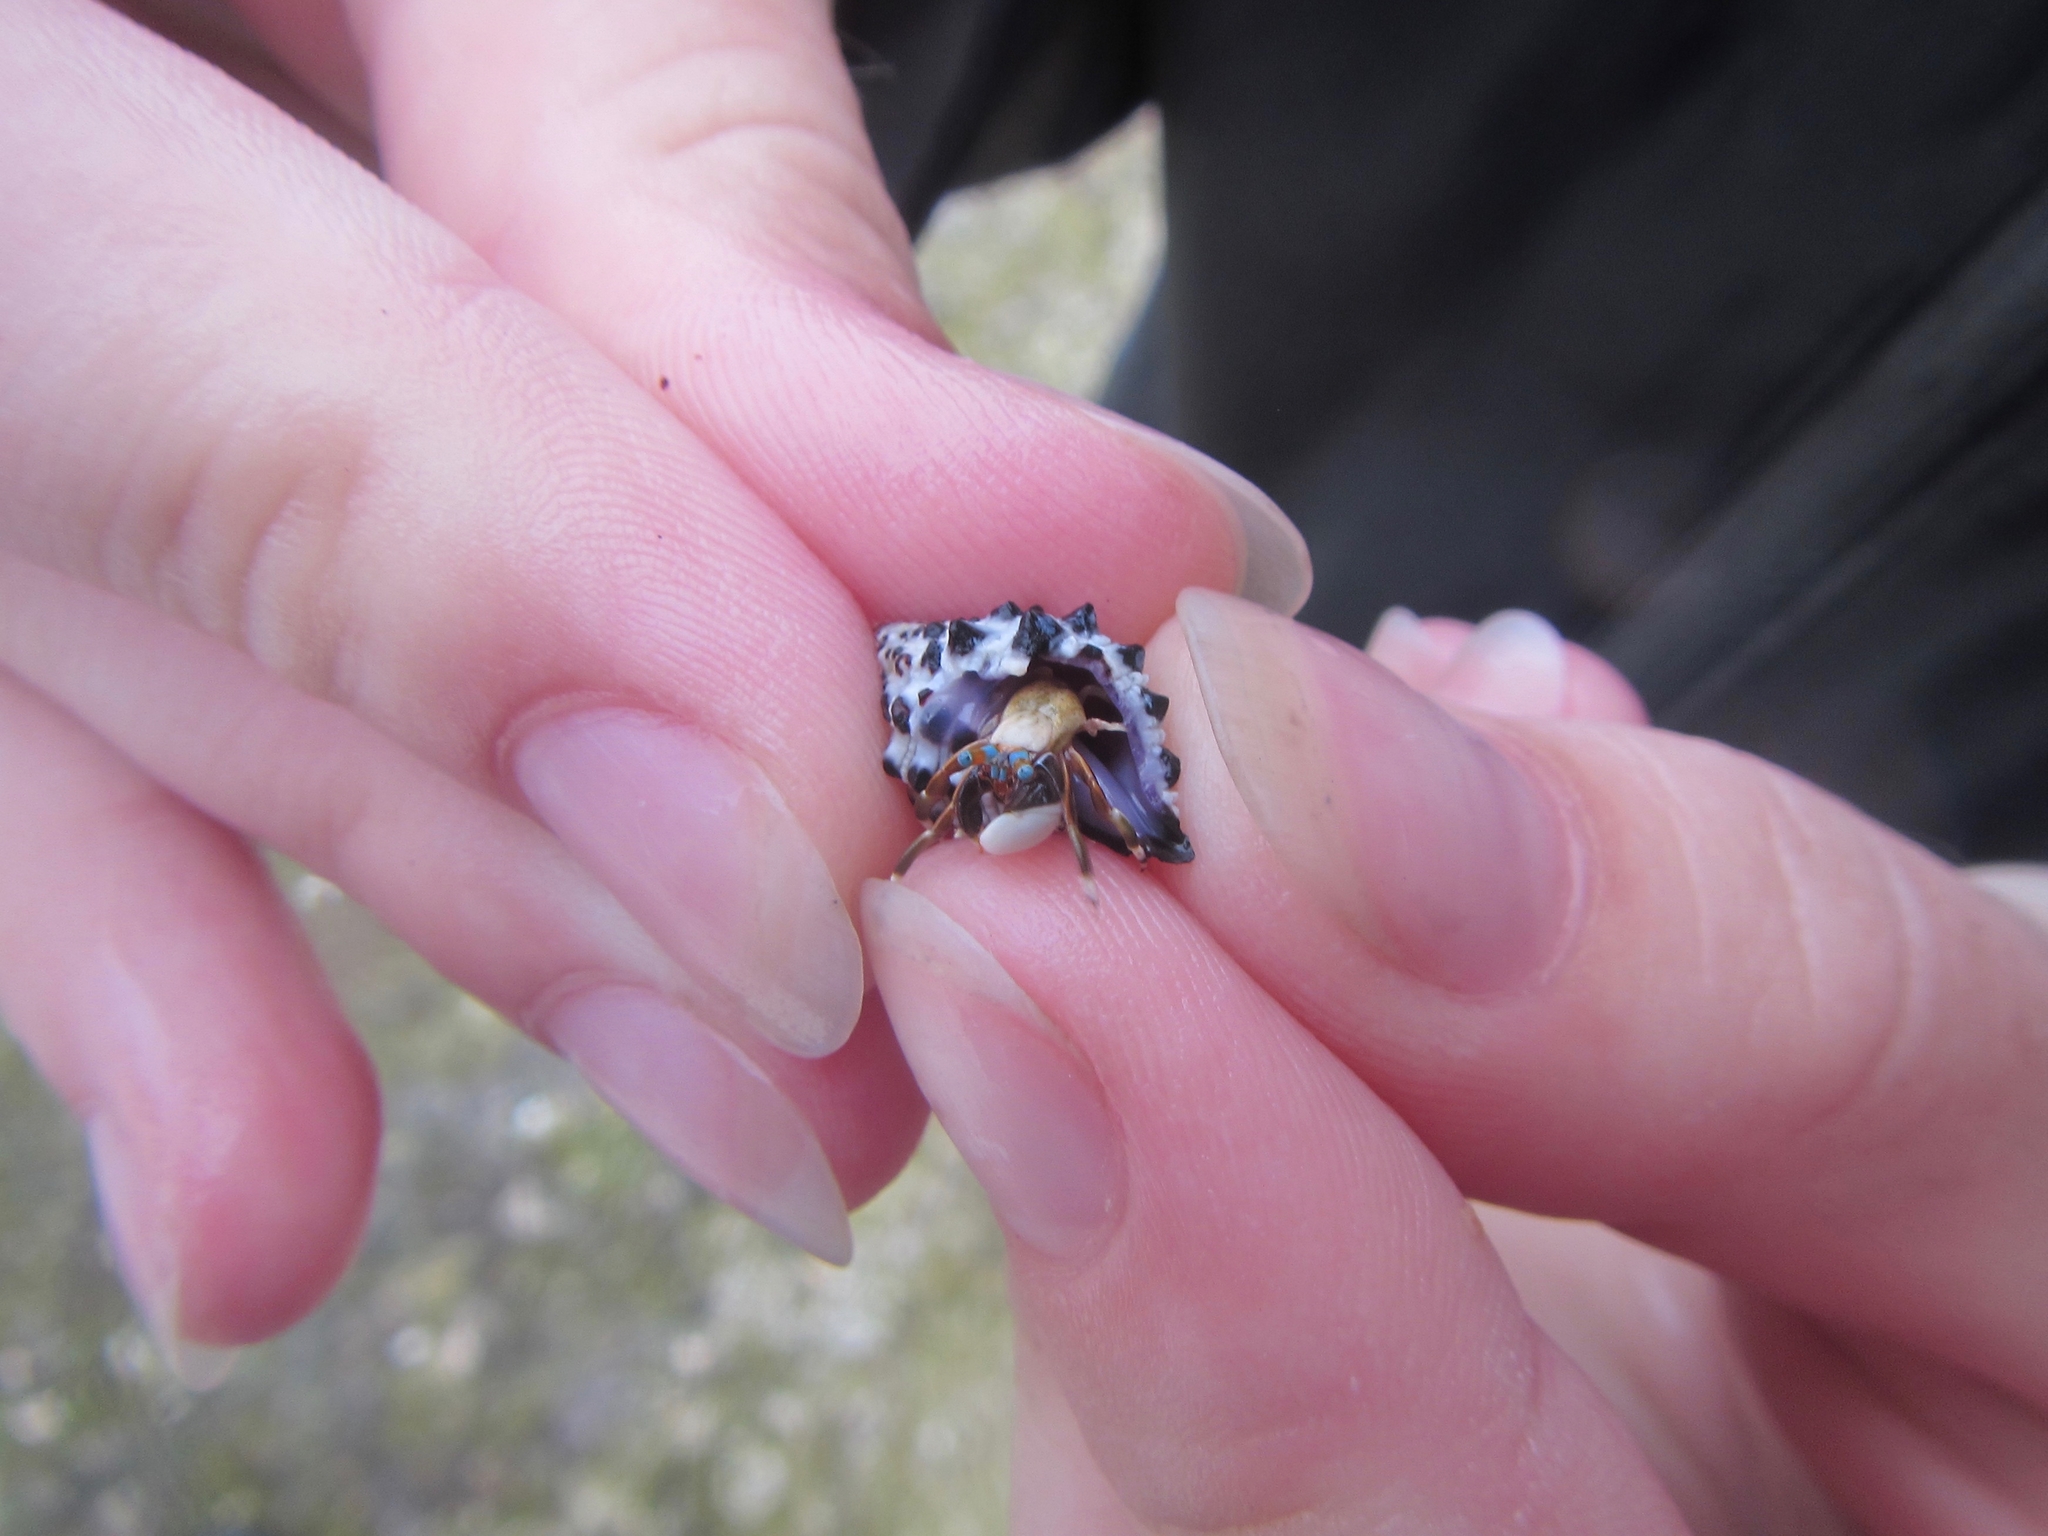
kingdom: Animalia
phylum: Arthropoda
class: Malacostraca
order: Decapoda
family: Diogenidae
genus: Calcinus
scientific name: Calcinus laevimanus
